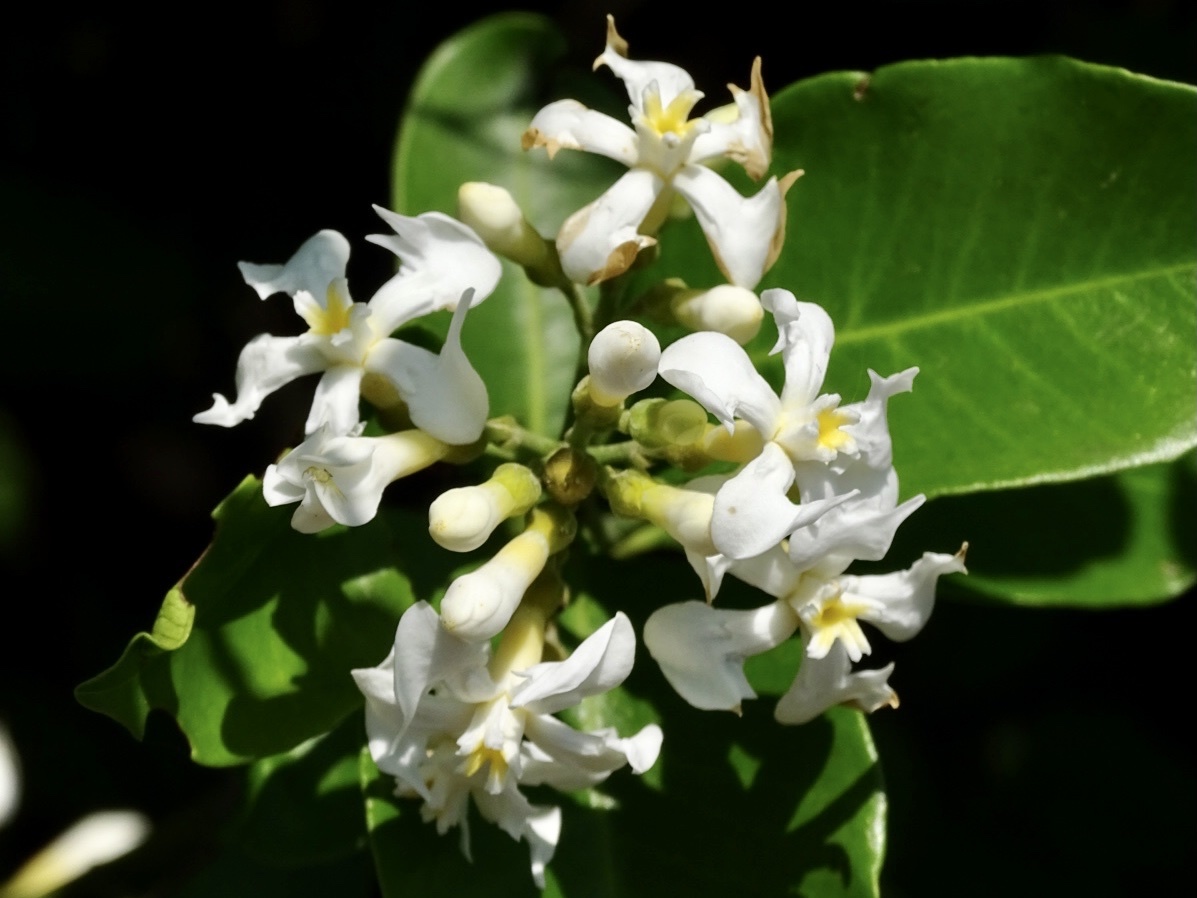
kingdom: Plantae
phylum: Tracheophyta
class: Magnoliopsida
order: Gentianales
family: Apocynaceae
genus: Melodinus
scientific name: Melodinus suaveolens
